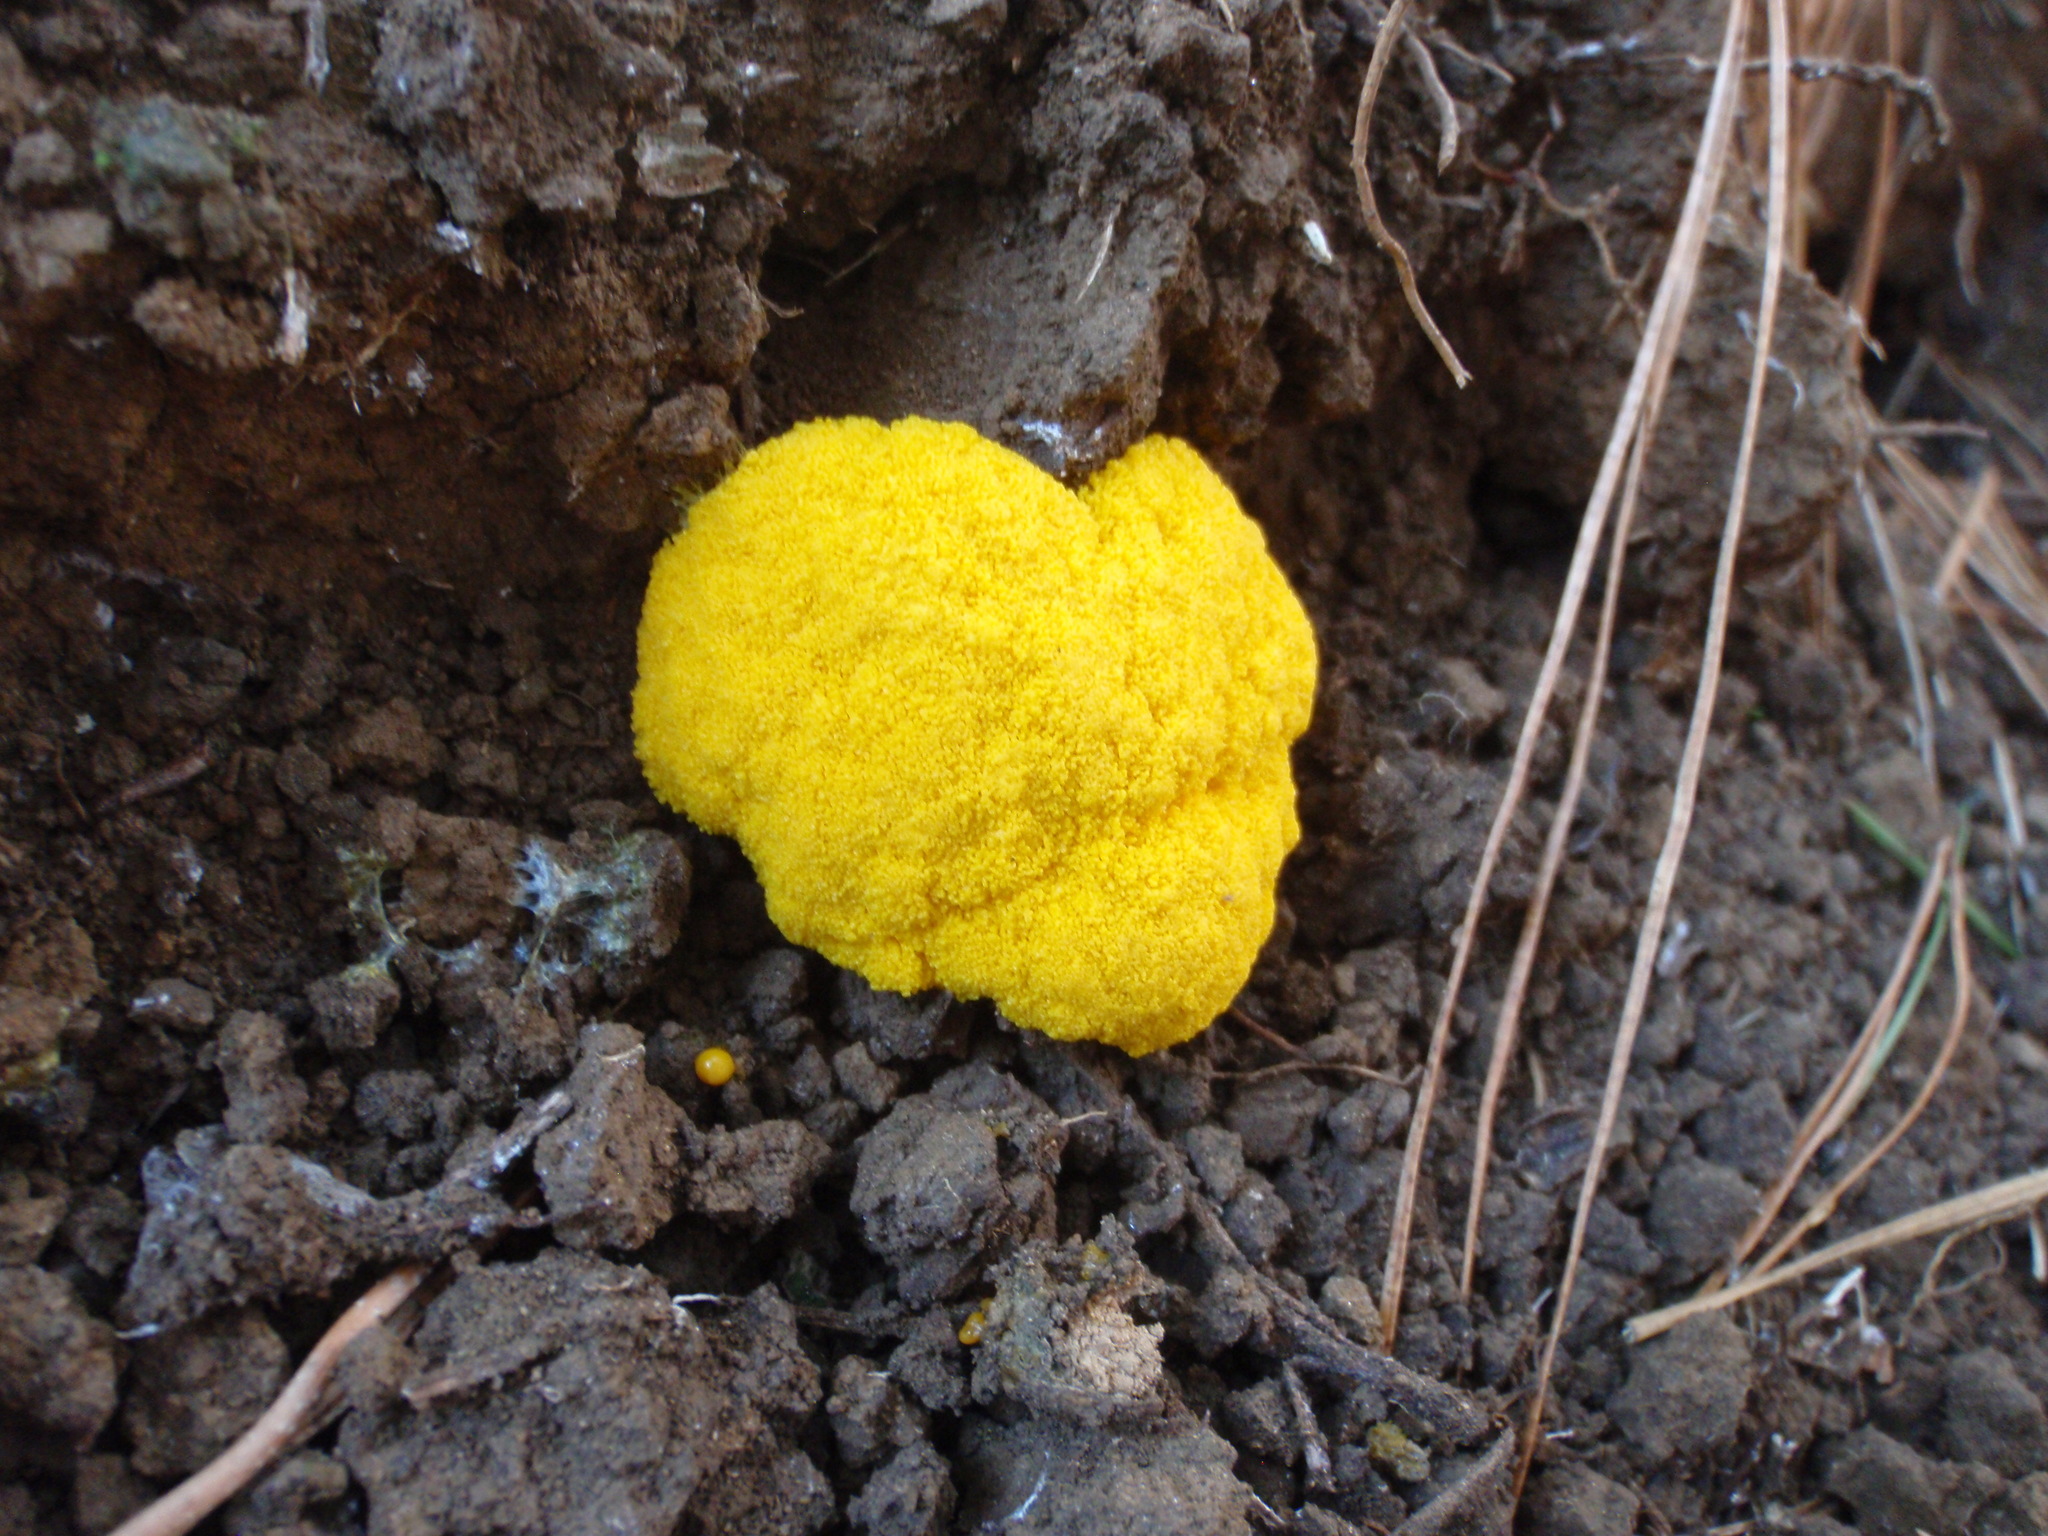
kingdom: Protozoa
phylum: Mycetozoa
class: Myxomycetes
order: Physarales
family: Physaraceae
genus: Fuligo
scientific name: Fuligo septica
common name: Dog vomit slime mold
